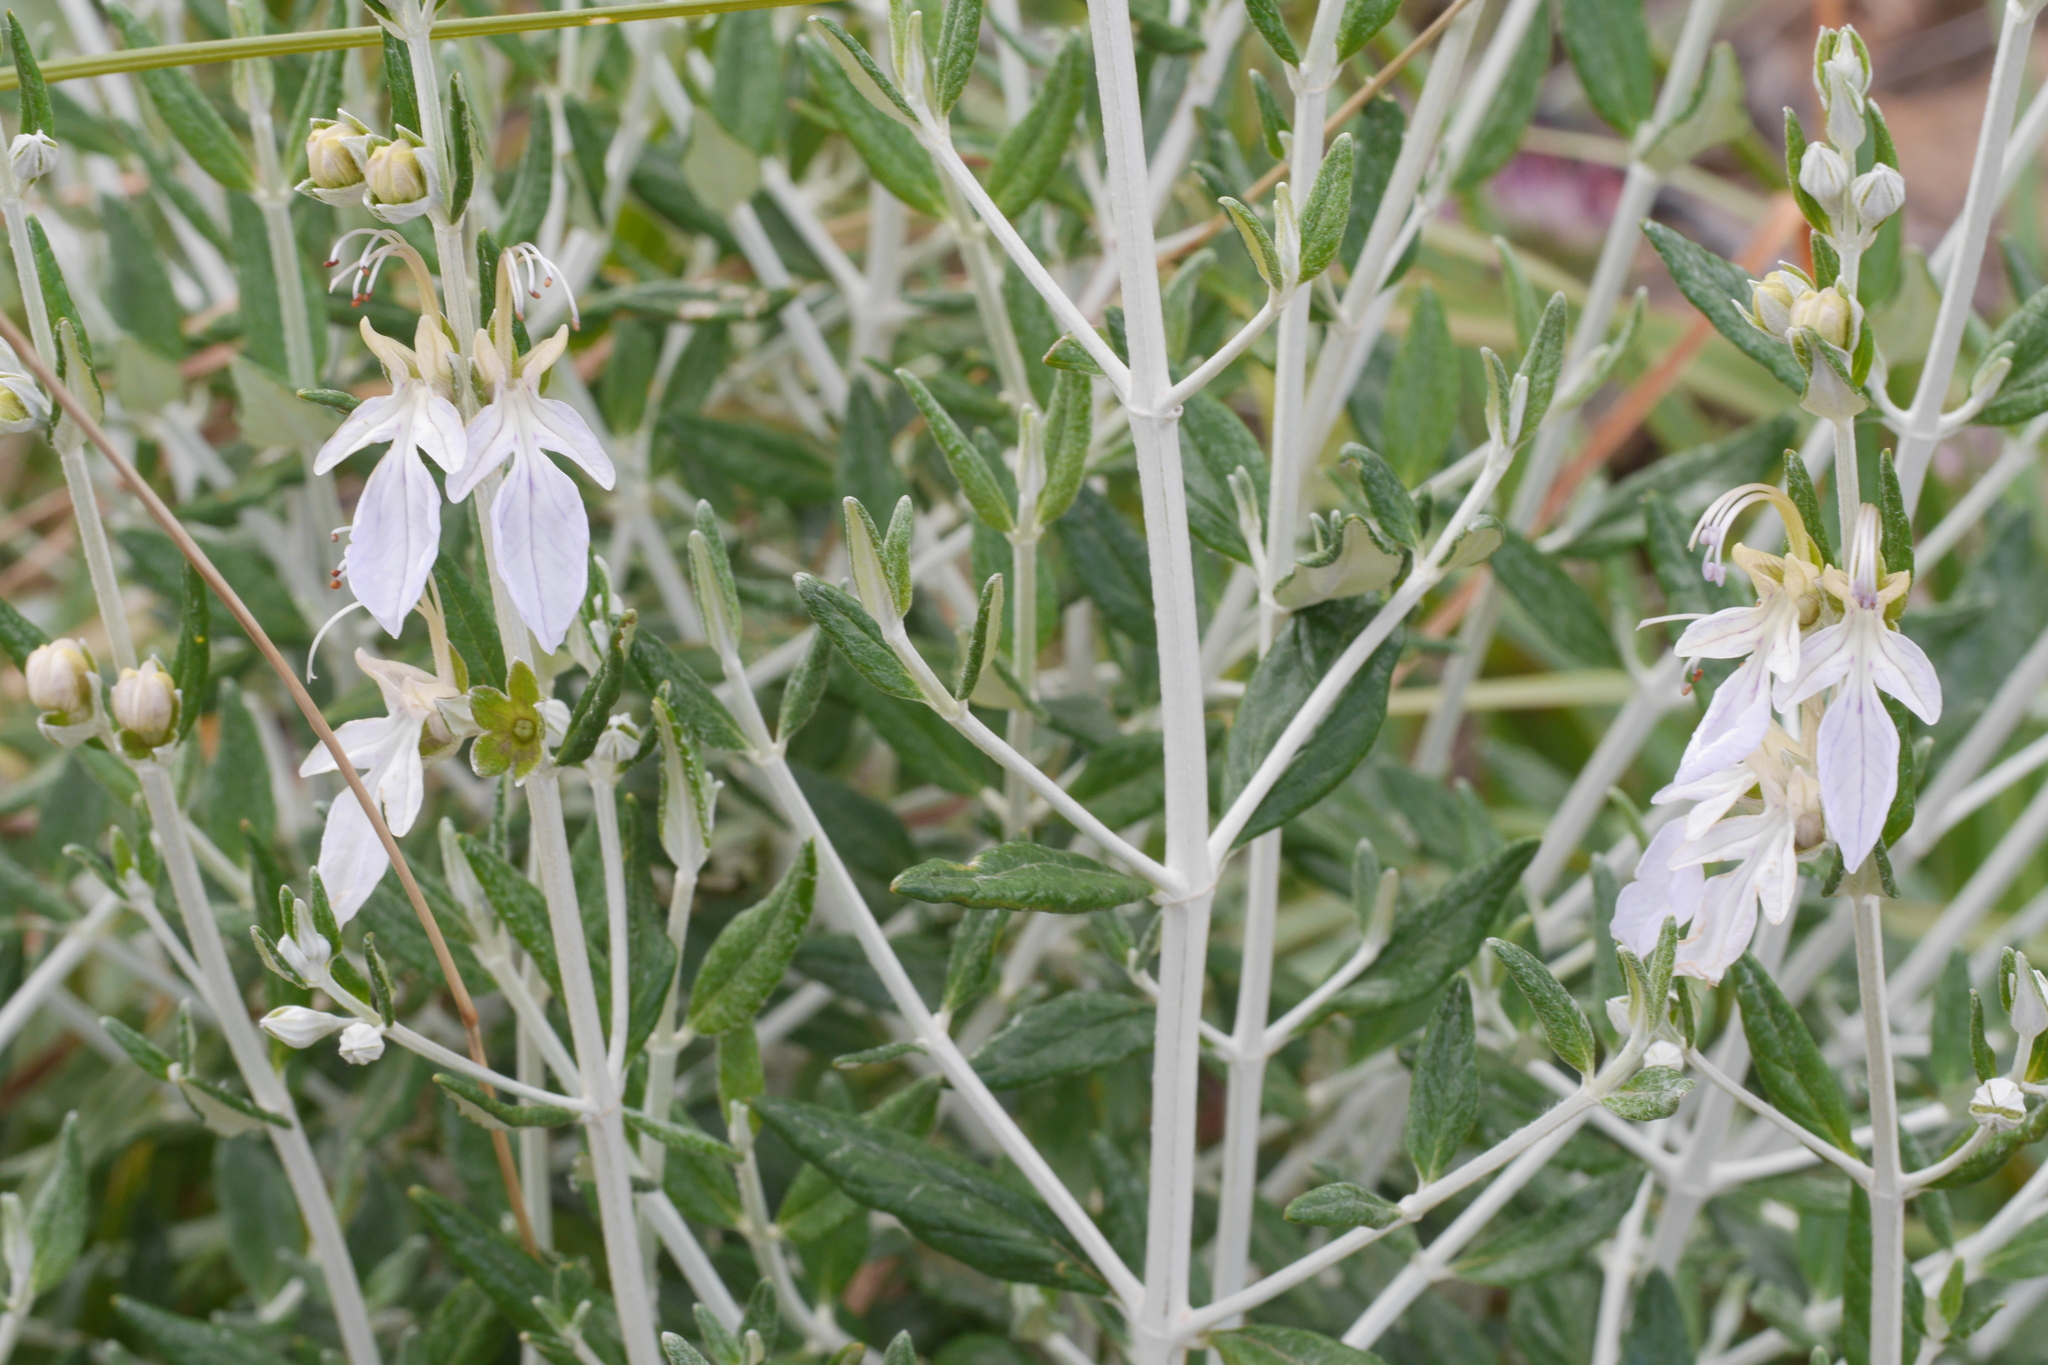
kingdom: Plantae
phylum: Tracheophyta
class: Magnoliopsida
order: Lamiales
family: Lamiaceae
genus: Teucrium
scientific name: Teucrium fruticans
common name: Shrubby germander
